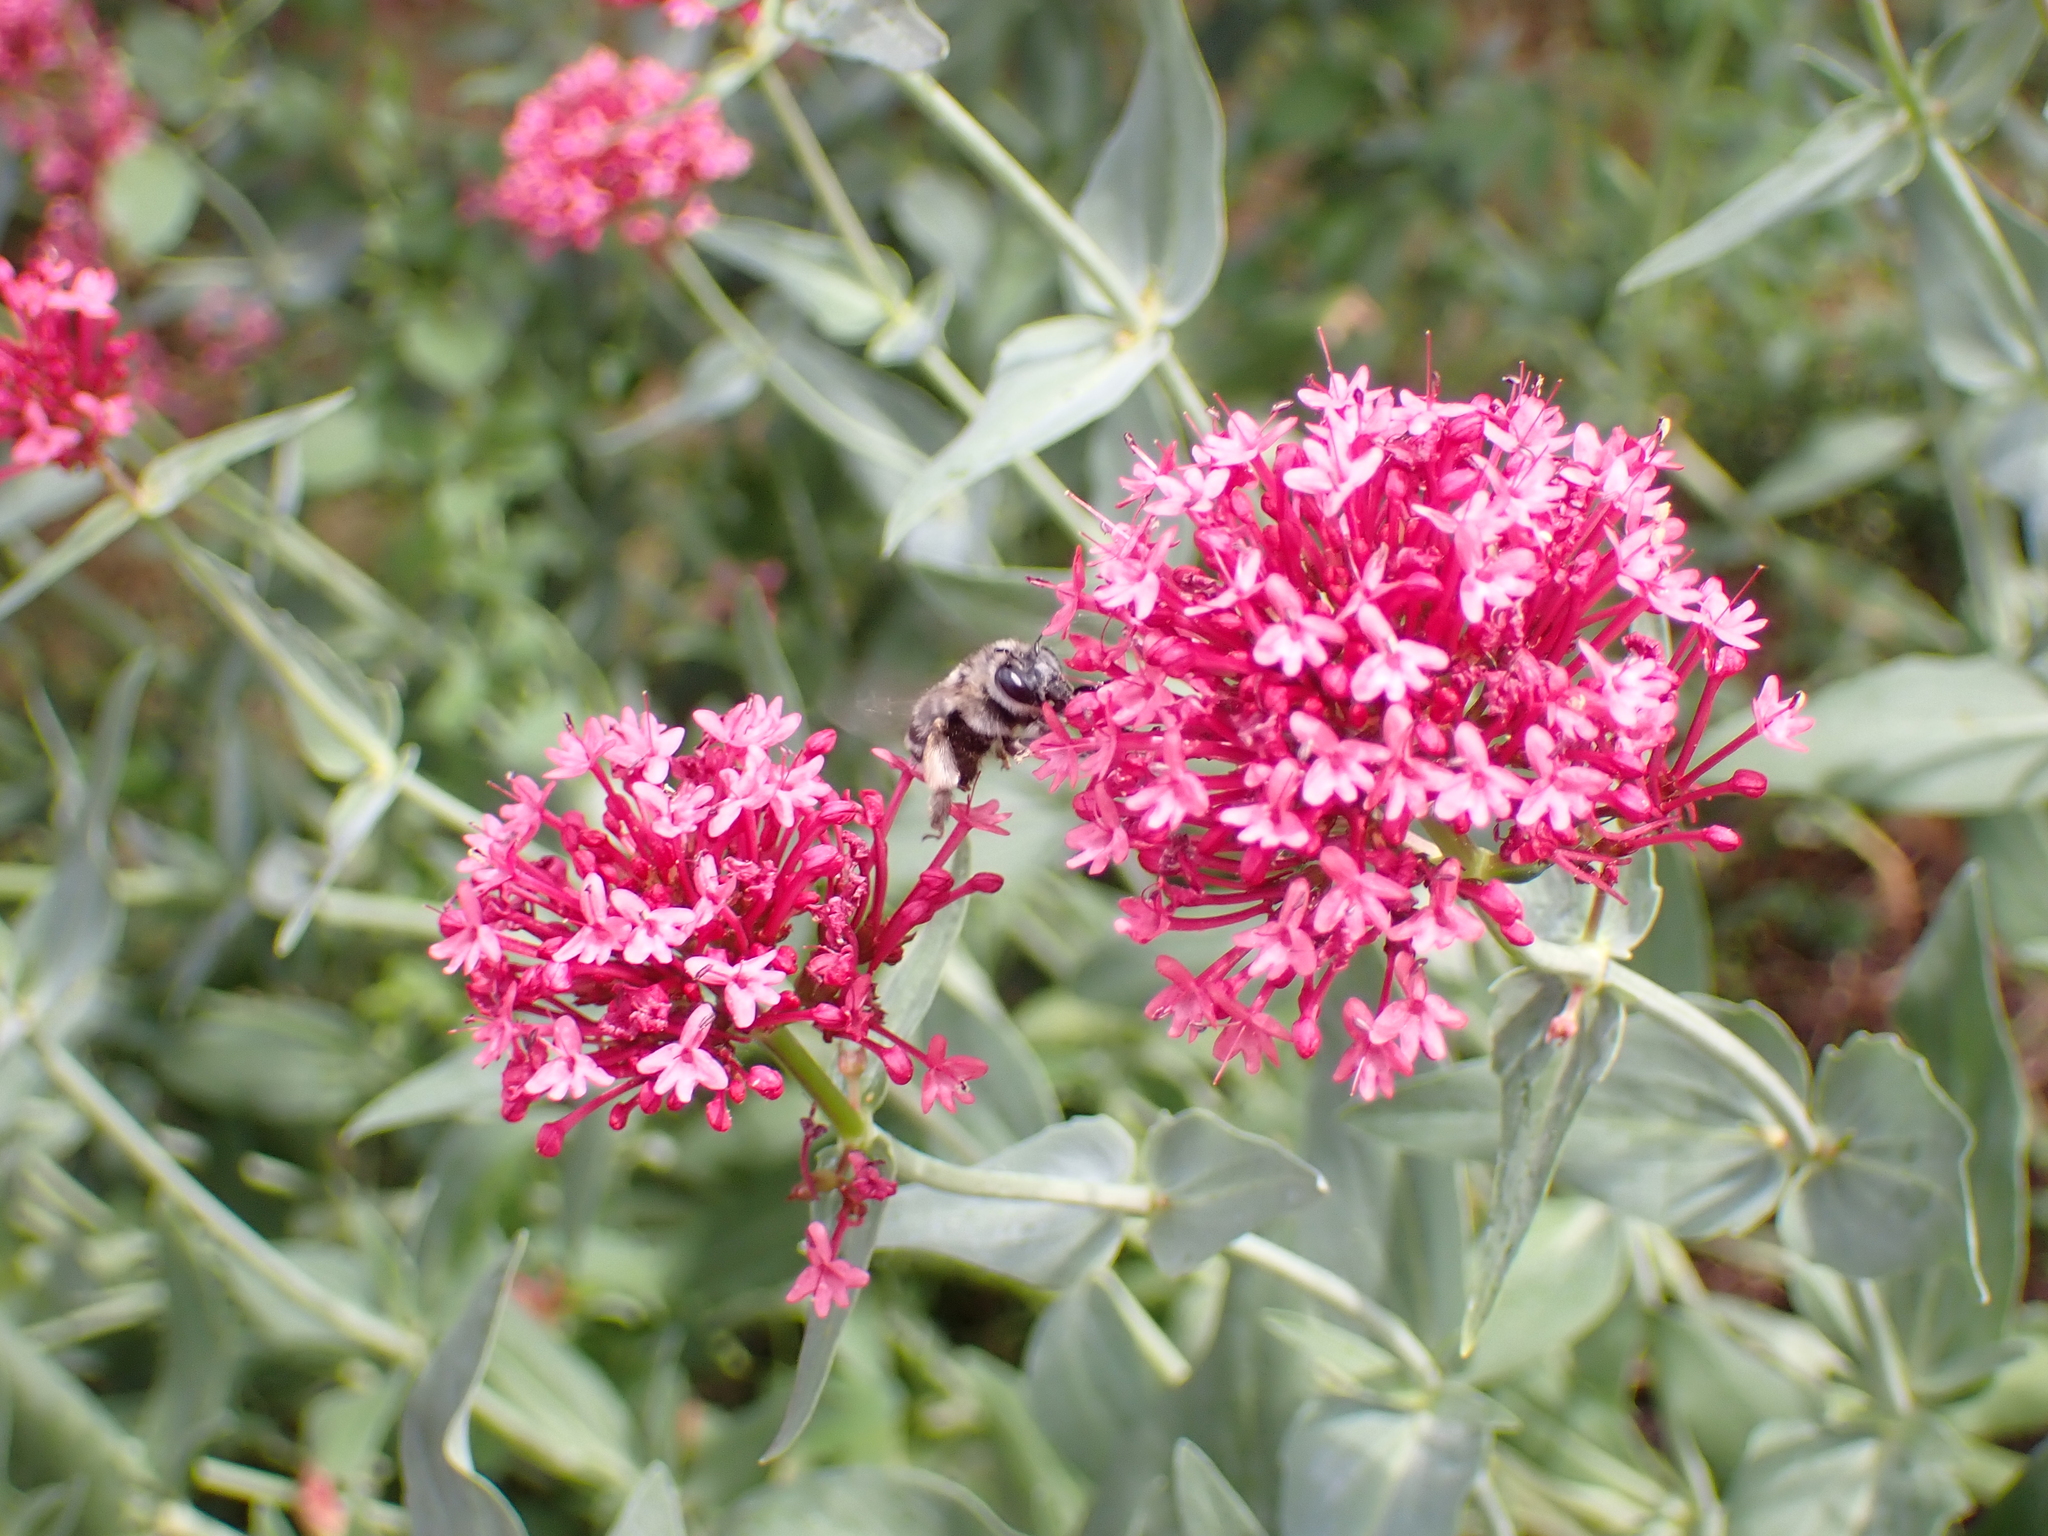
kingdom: Animalia
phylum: Arthropoda
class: Insecta
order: Hymenoptera
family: Apidae
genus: Anthophora
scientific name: Anthophora aestivalis
